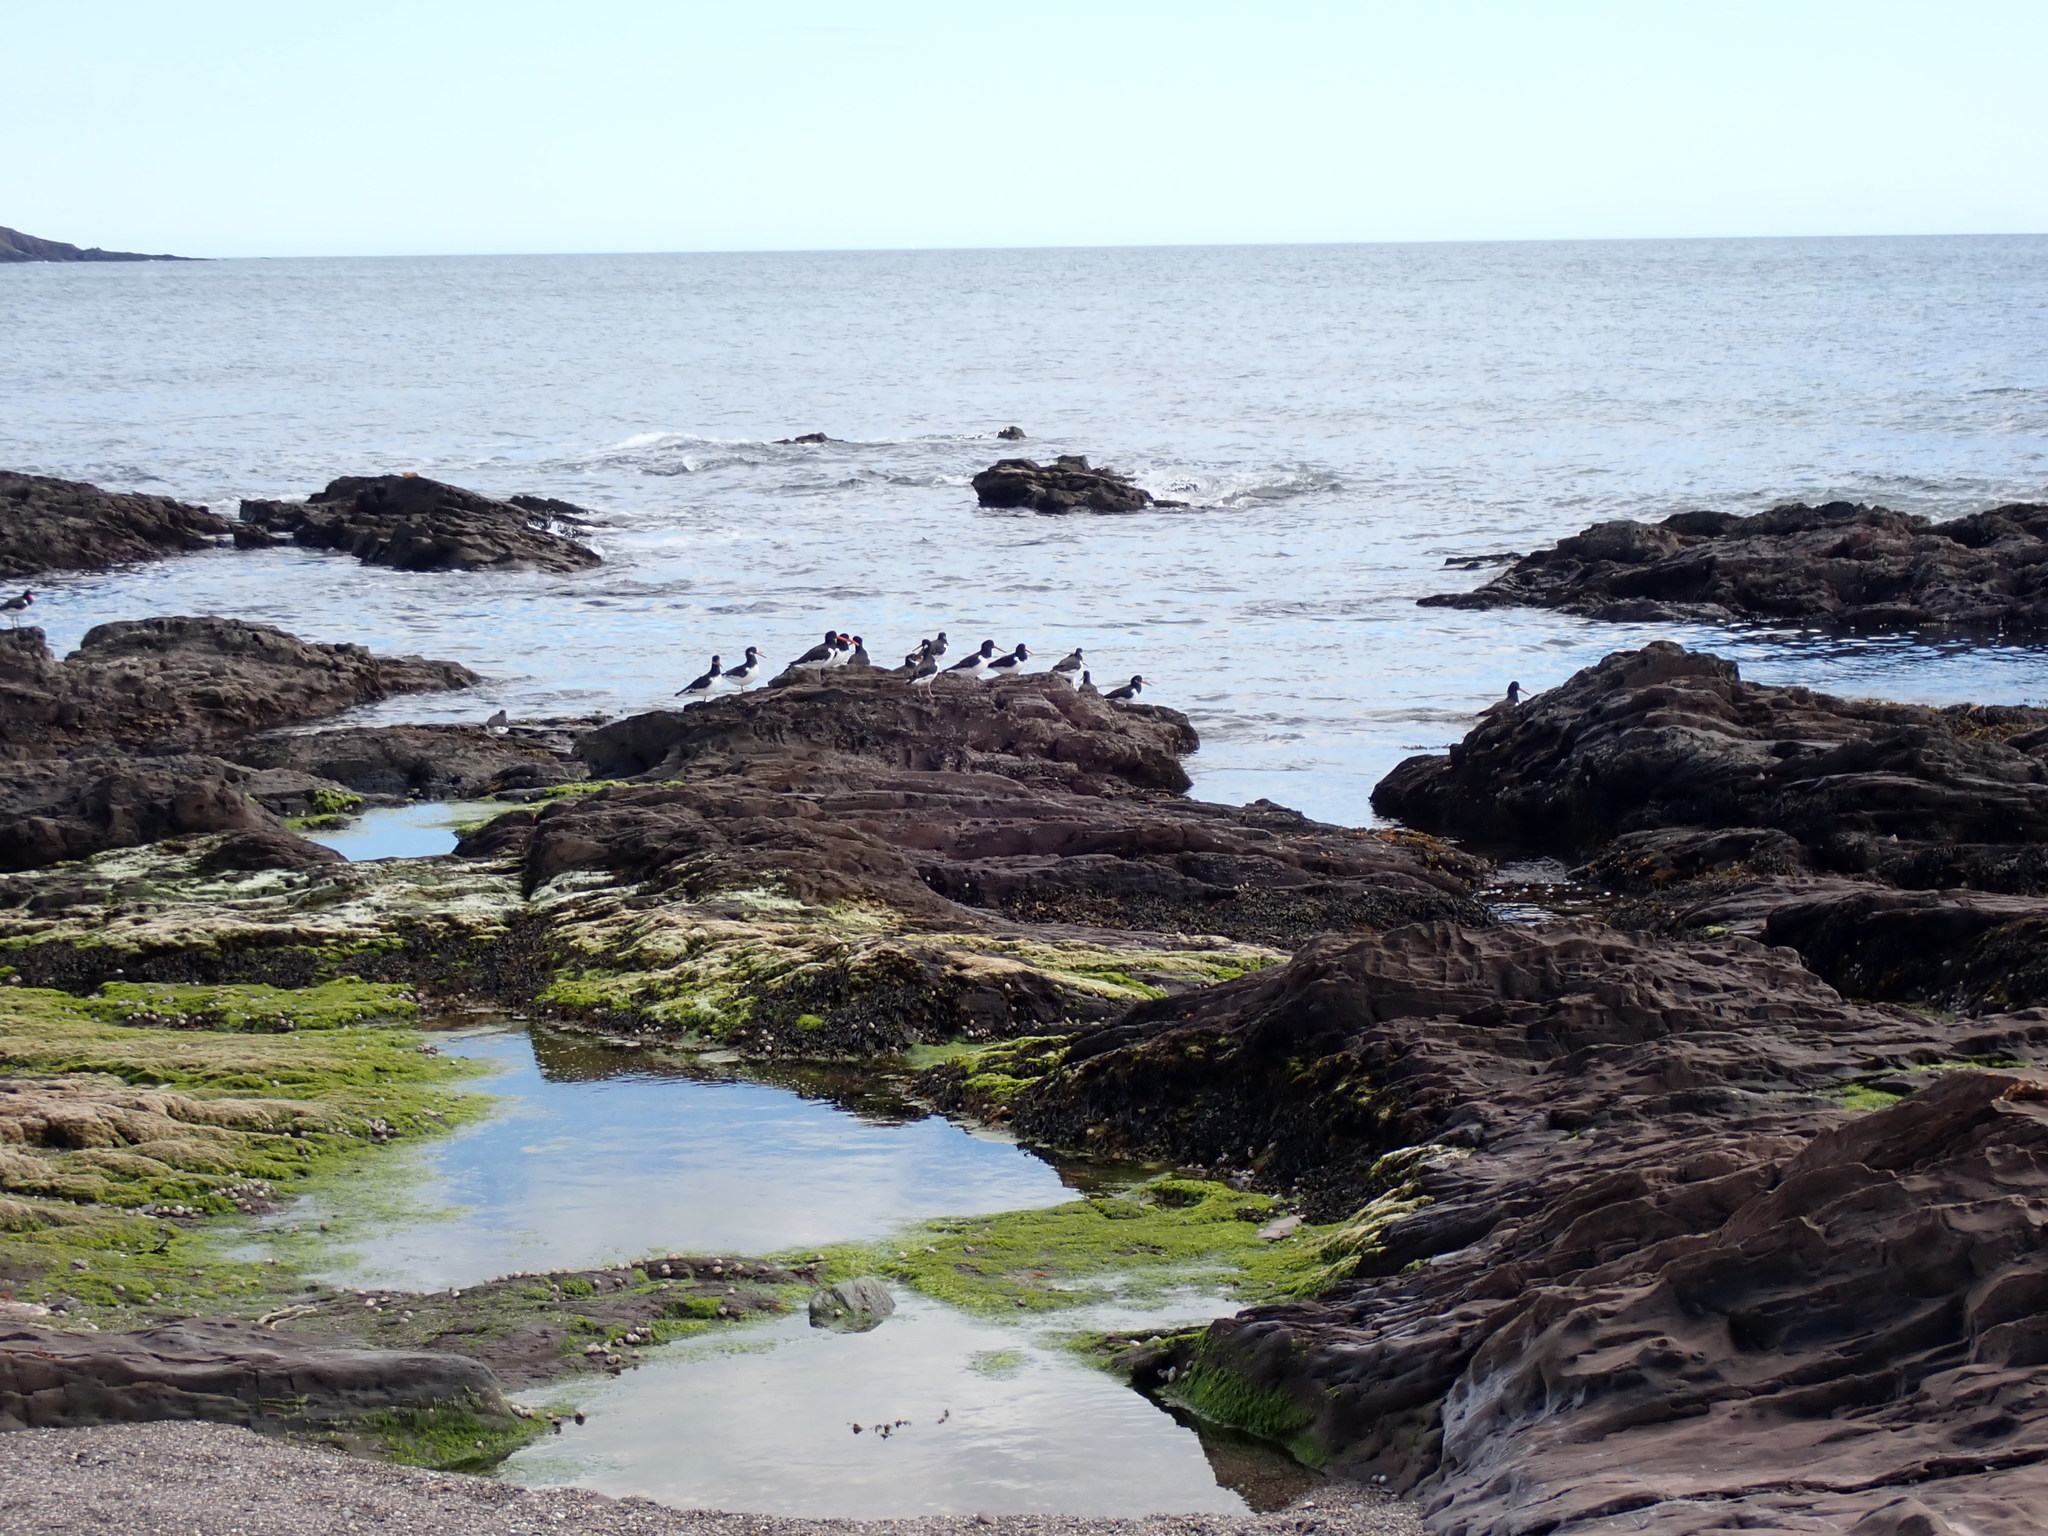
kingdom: Animalia
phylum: Chordata
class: Aves
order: Charadriiformes
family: Haematopodidae
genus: Haematopus
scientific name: Haematopus ostralegus
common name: Eurasian oystercatcher
